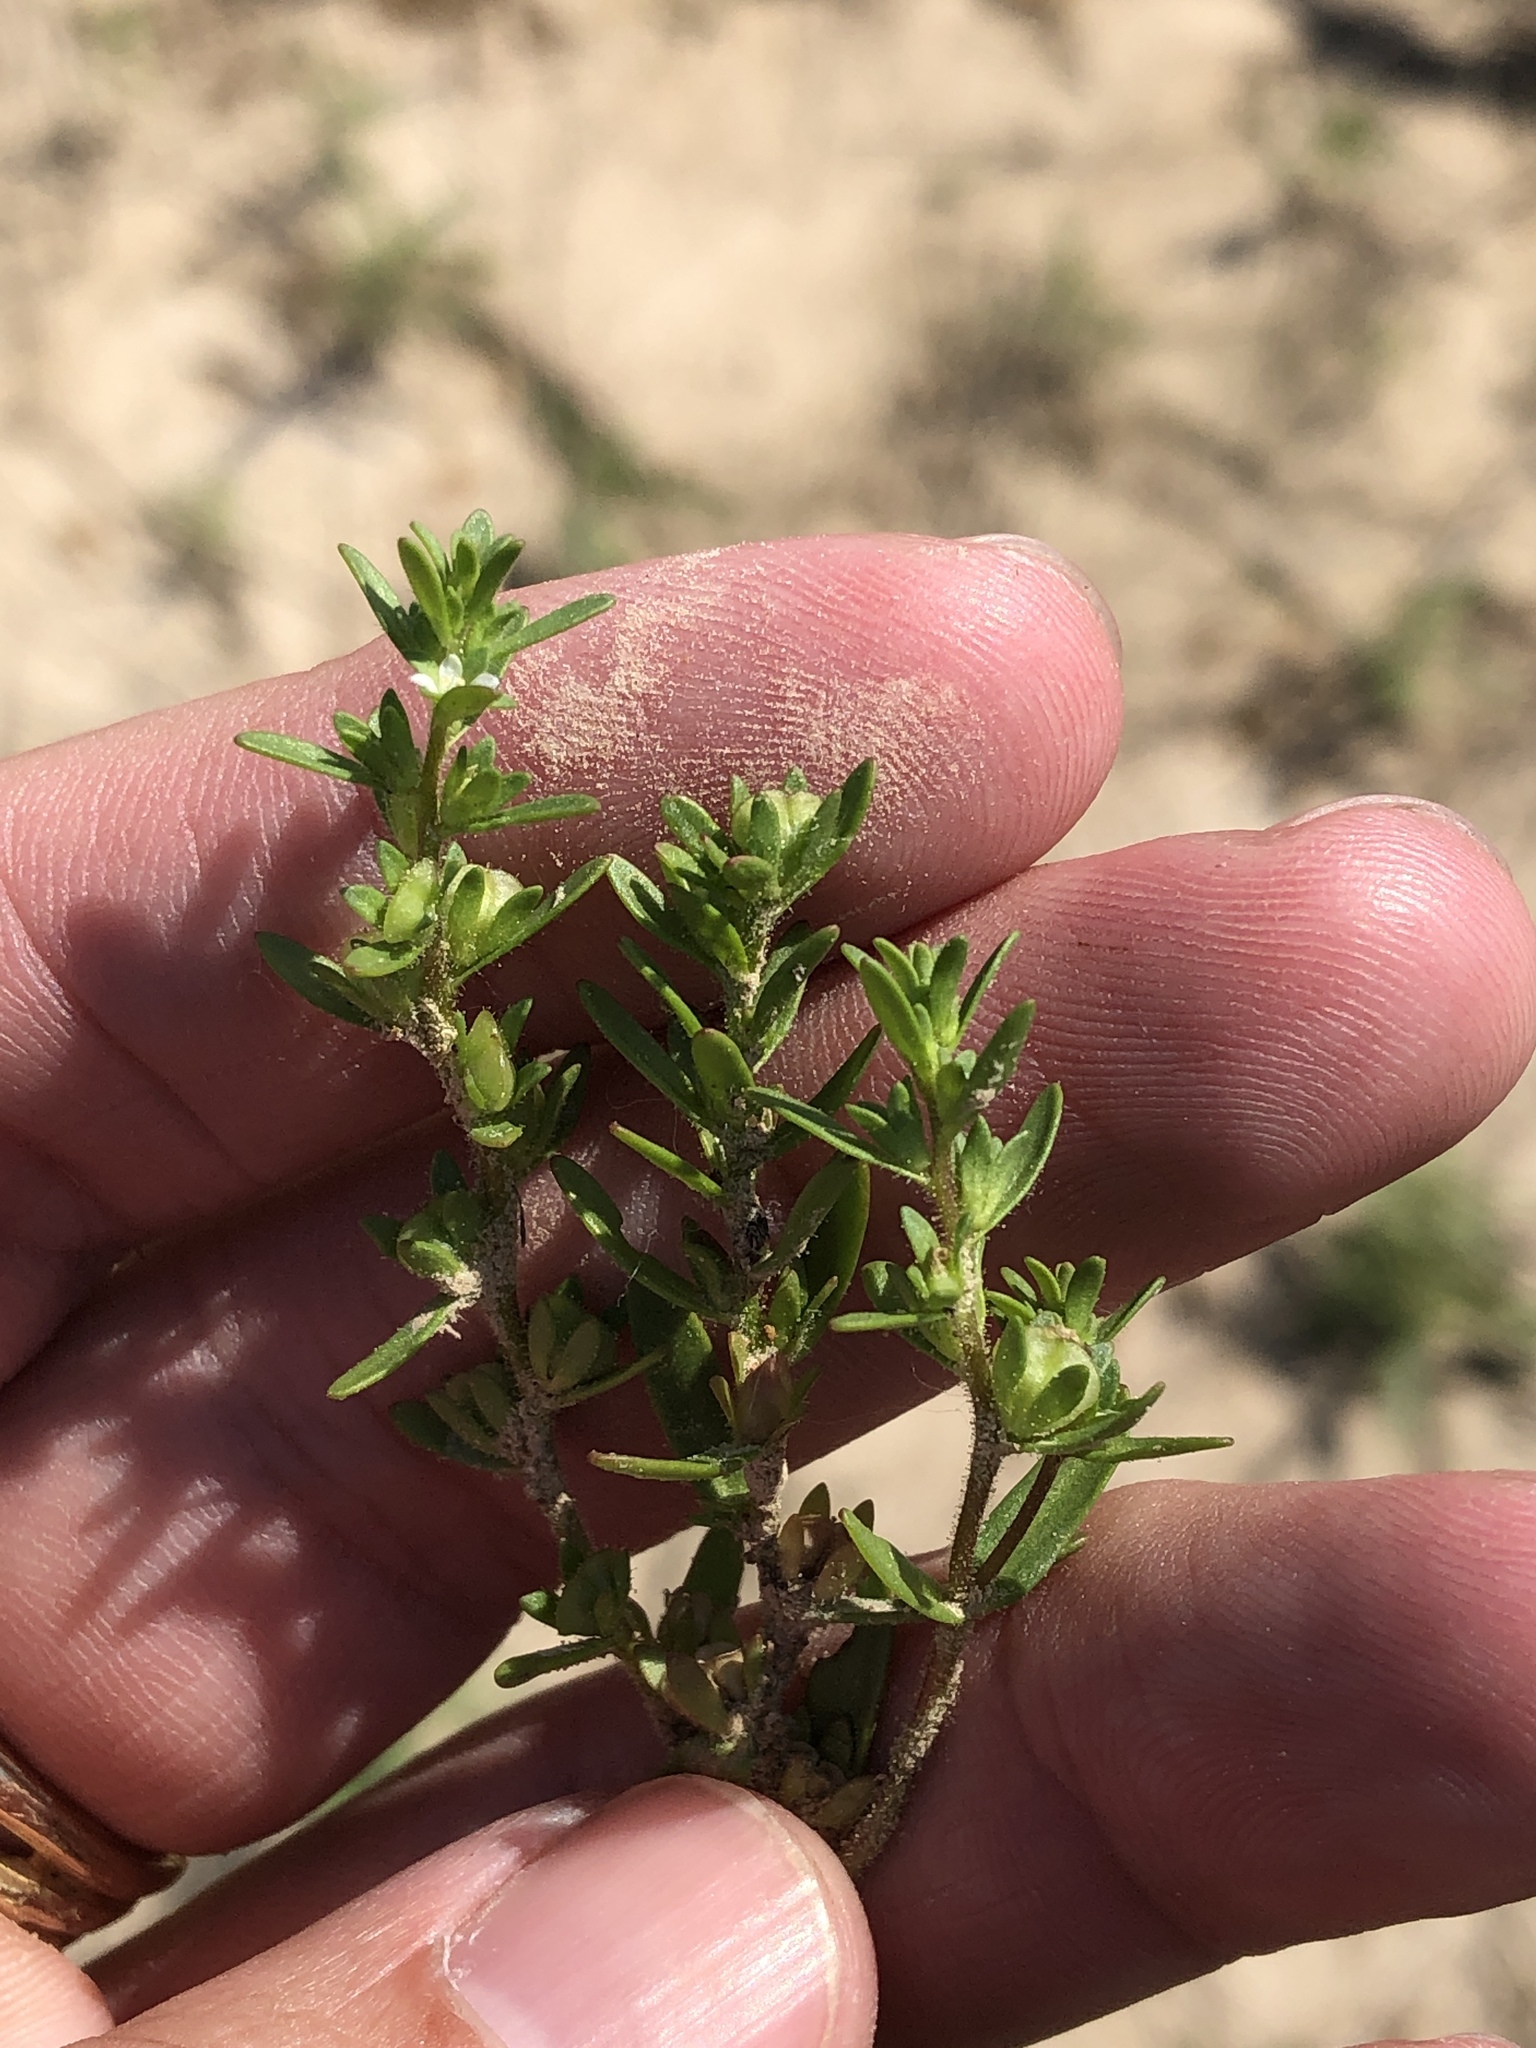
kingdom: Plantae
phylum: Tracheophyta
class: Magnoliopsida
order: Lamiales
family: Plantaginaceae
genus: Veronica
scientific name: Veronica peregrina
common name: Neckweed
